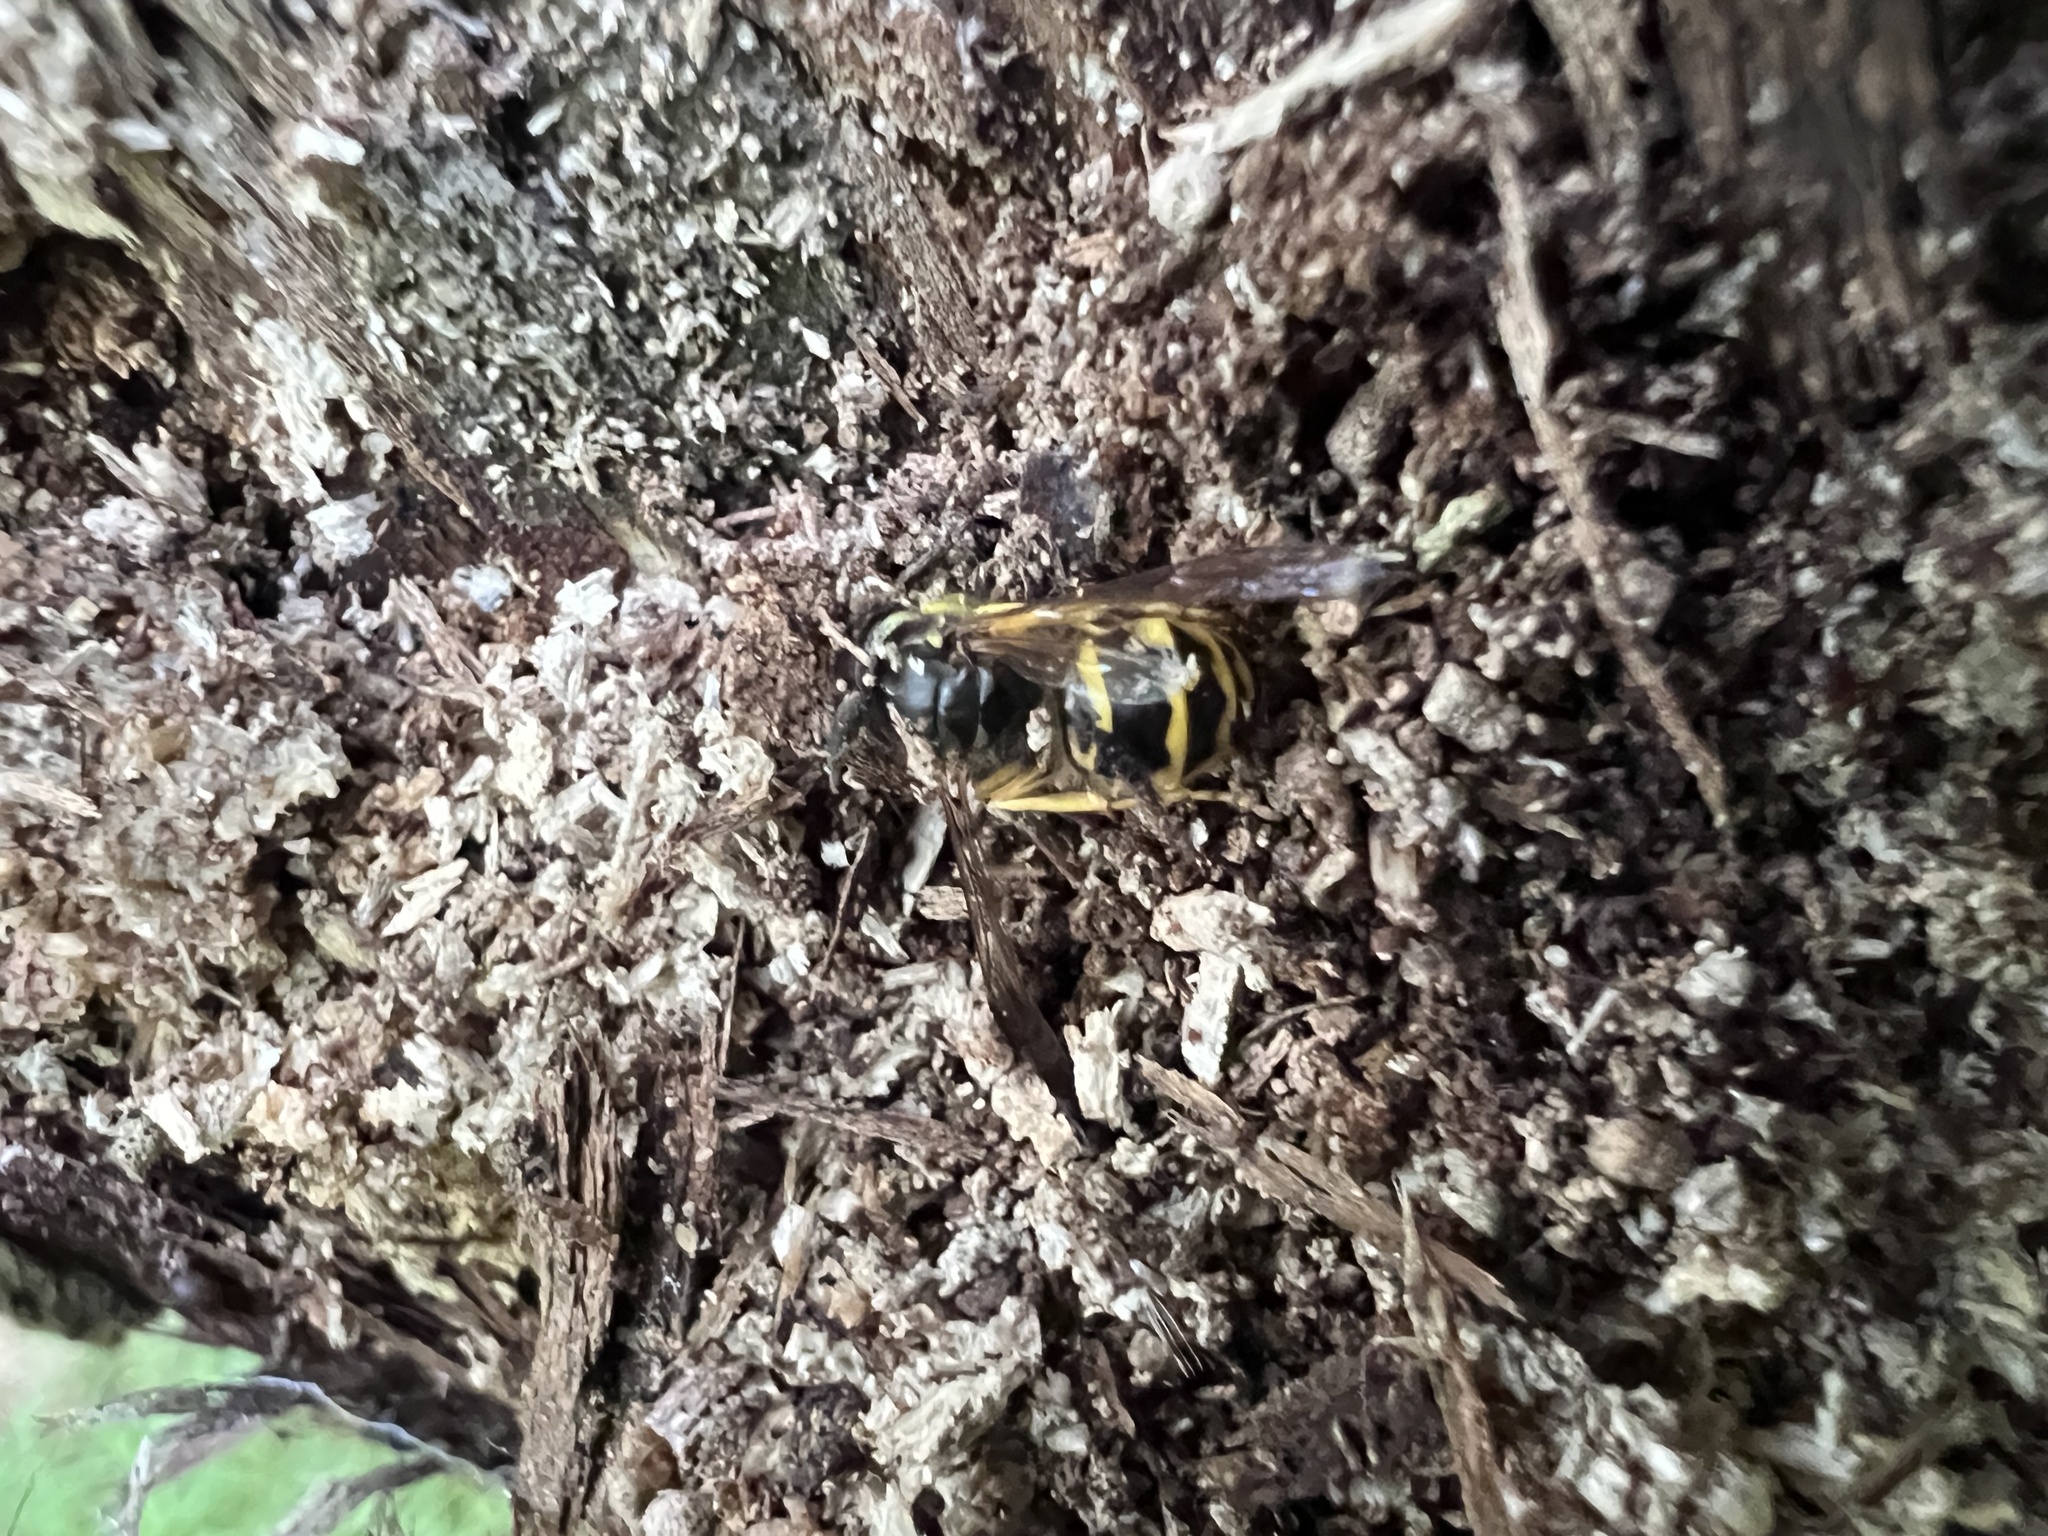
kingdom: Animalia
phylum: Arthropoda
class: Insecta
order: Hymenoptera
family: Vespidae
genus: Vespula
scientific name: Vespula maculifrons
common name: Eastern yellowjacket
